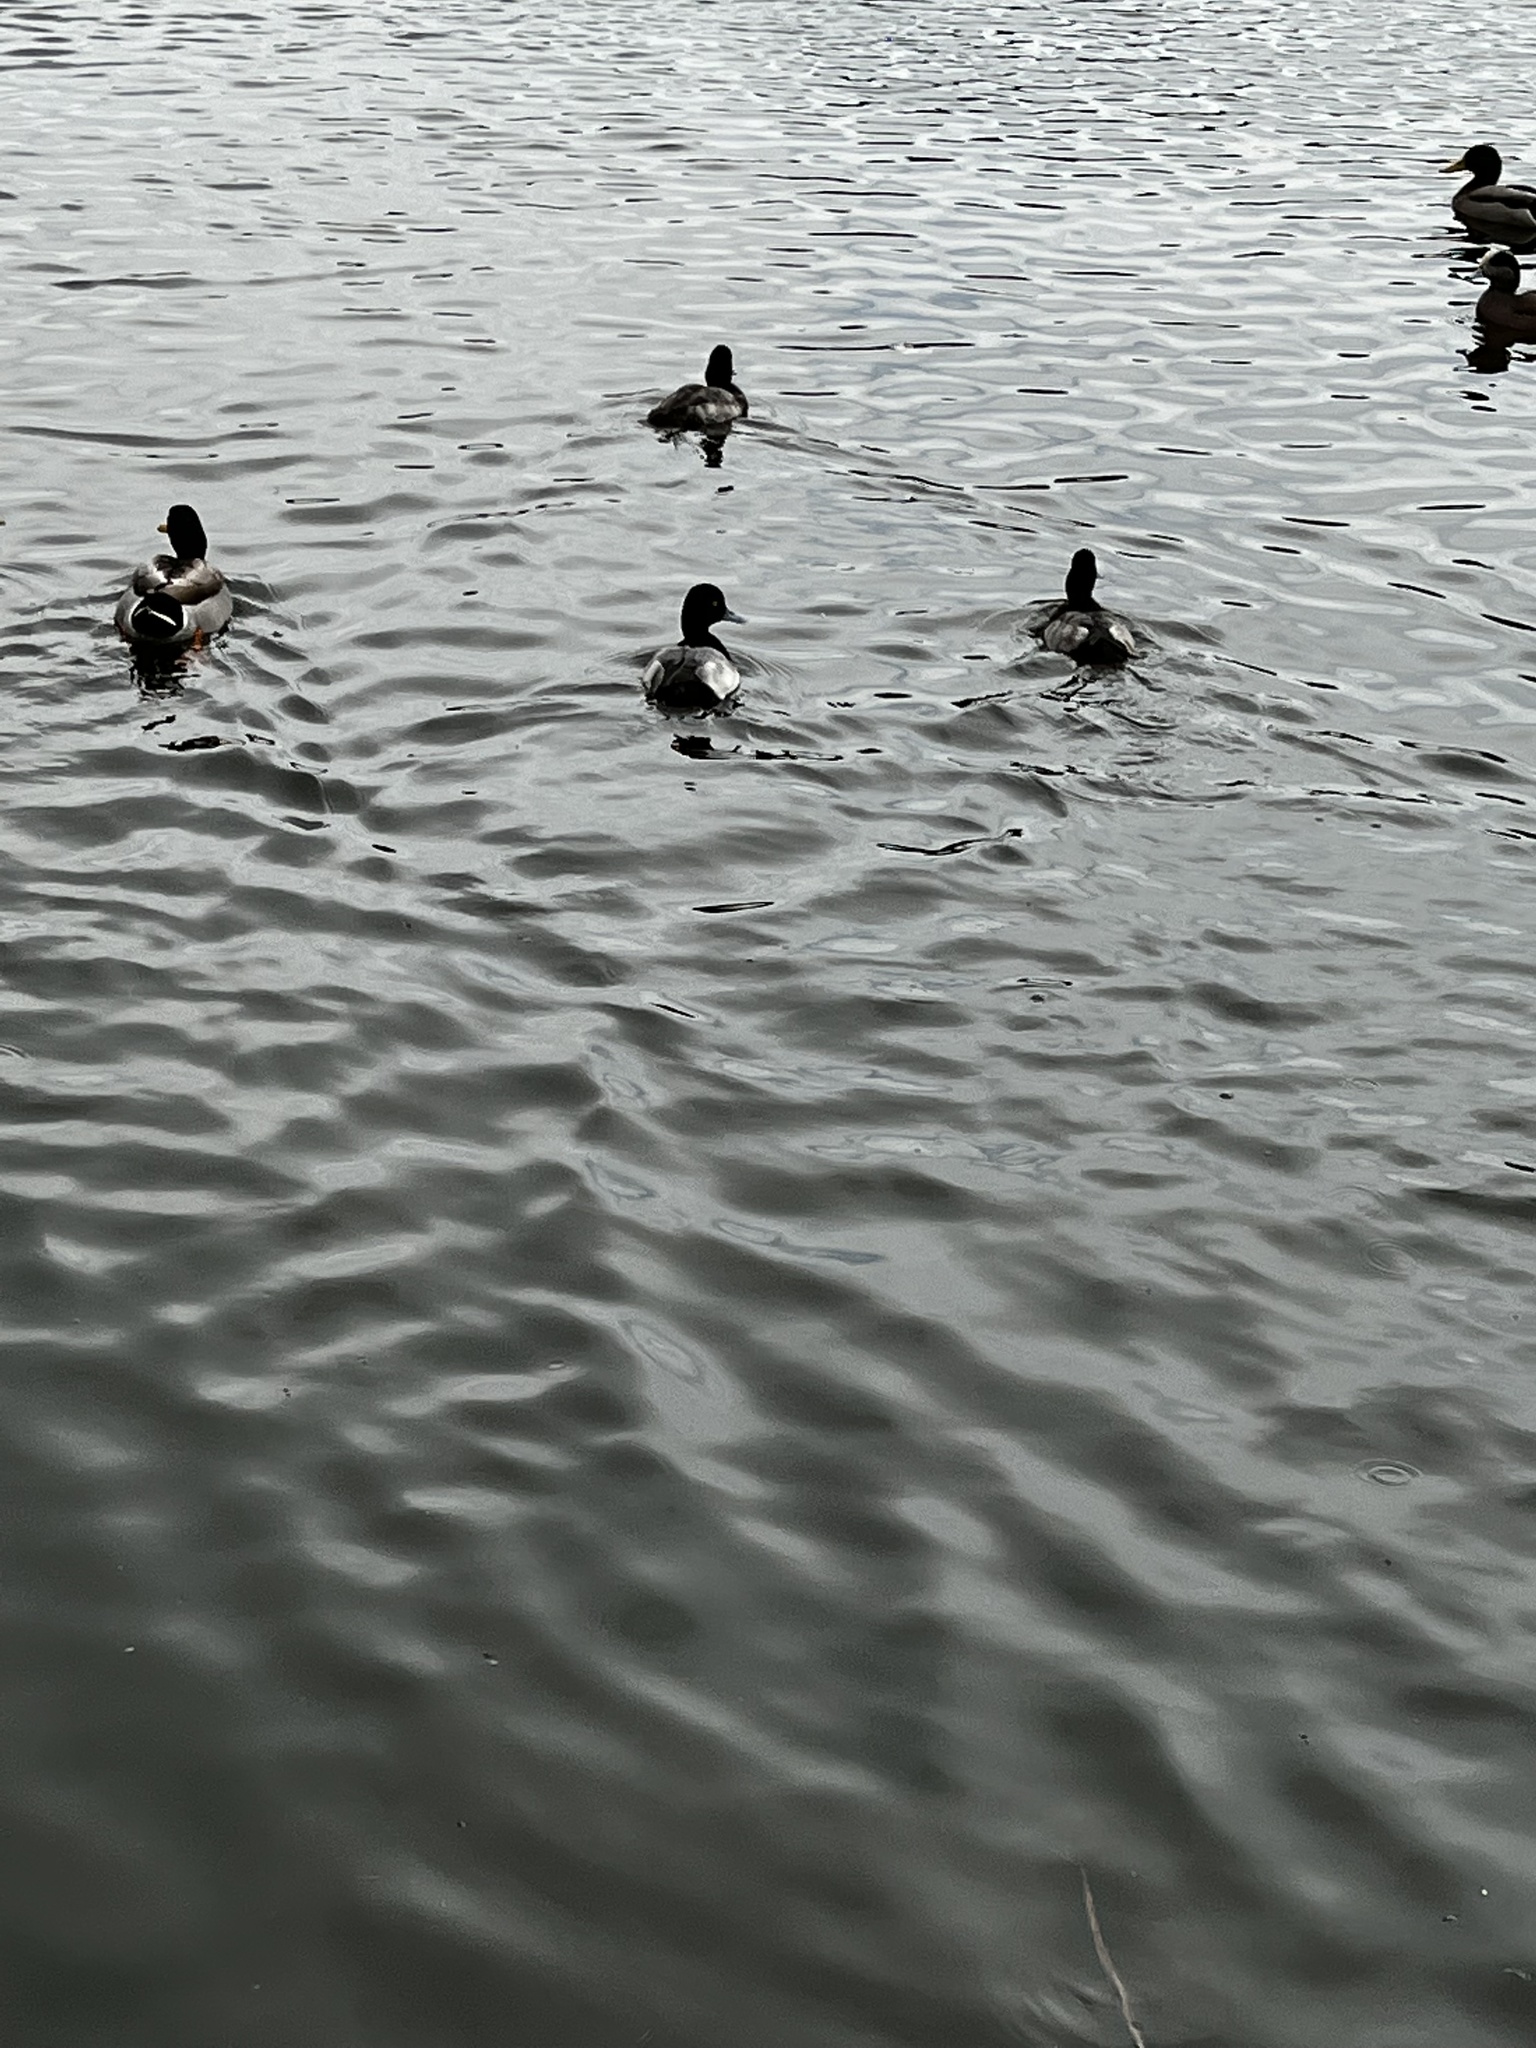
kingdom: Animalia
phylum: Chordata
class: Aves
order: Anseriformes
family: Anatidae
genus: Aythya
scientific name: Aythya affinis
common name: Lesser scaup
